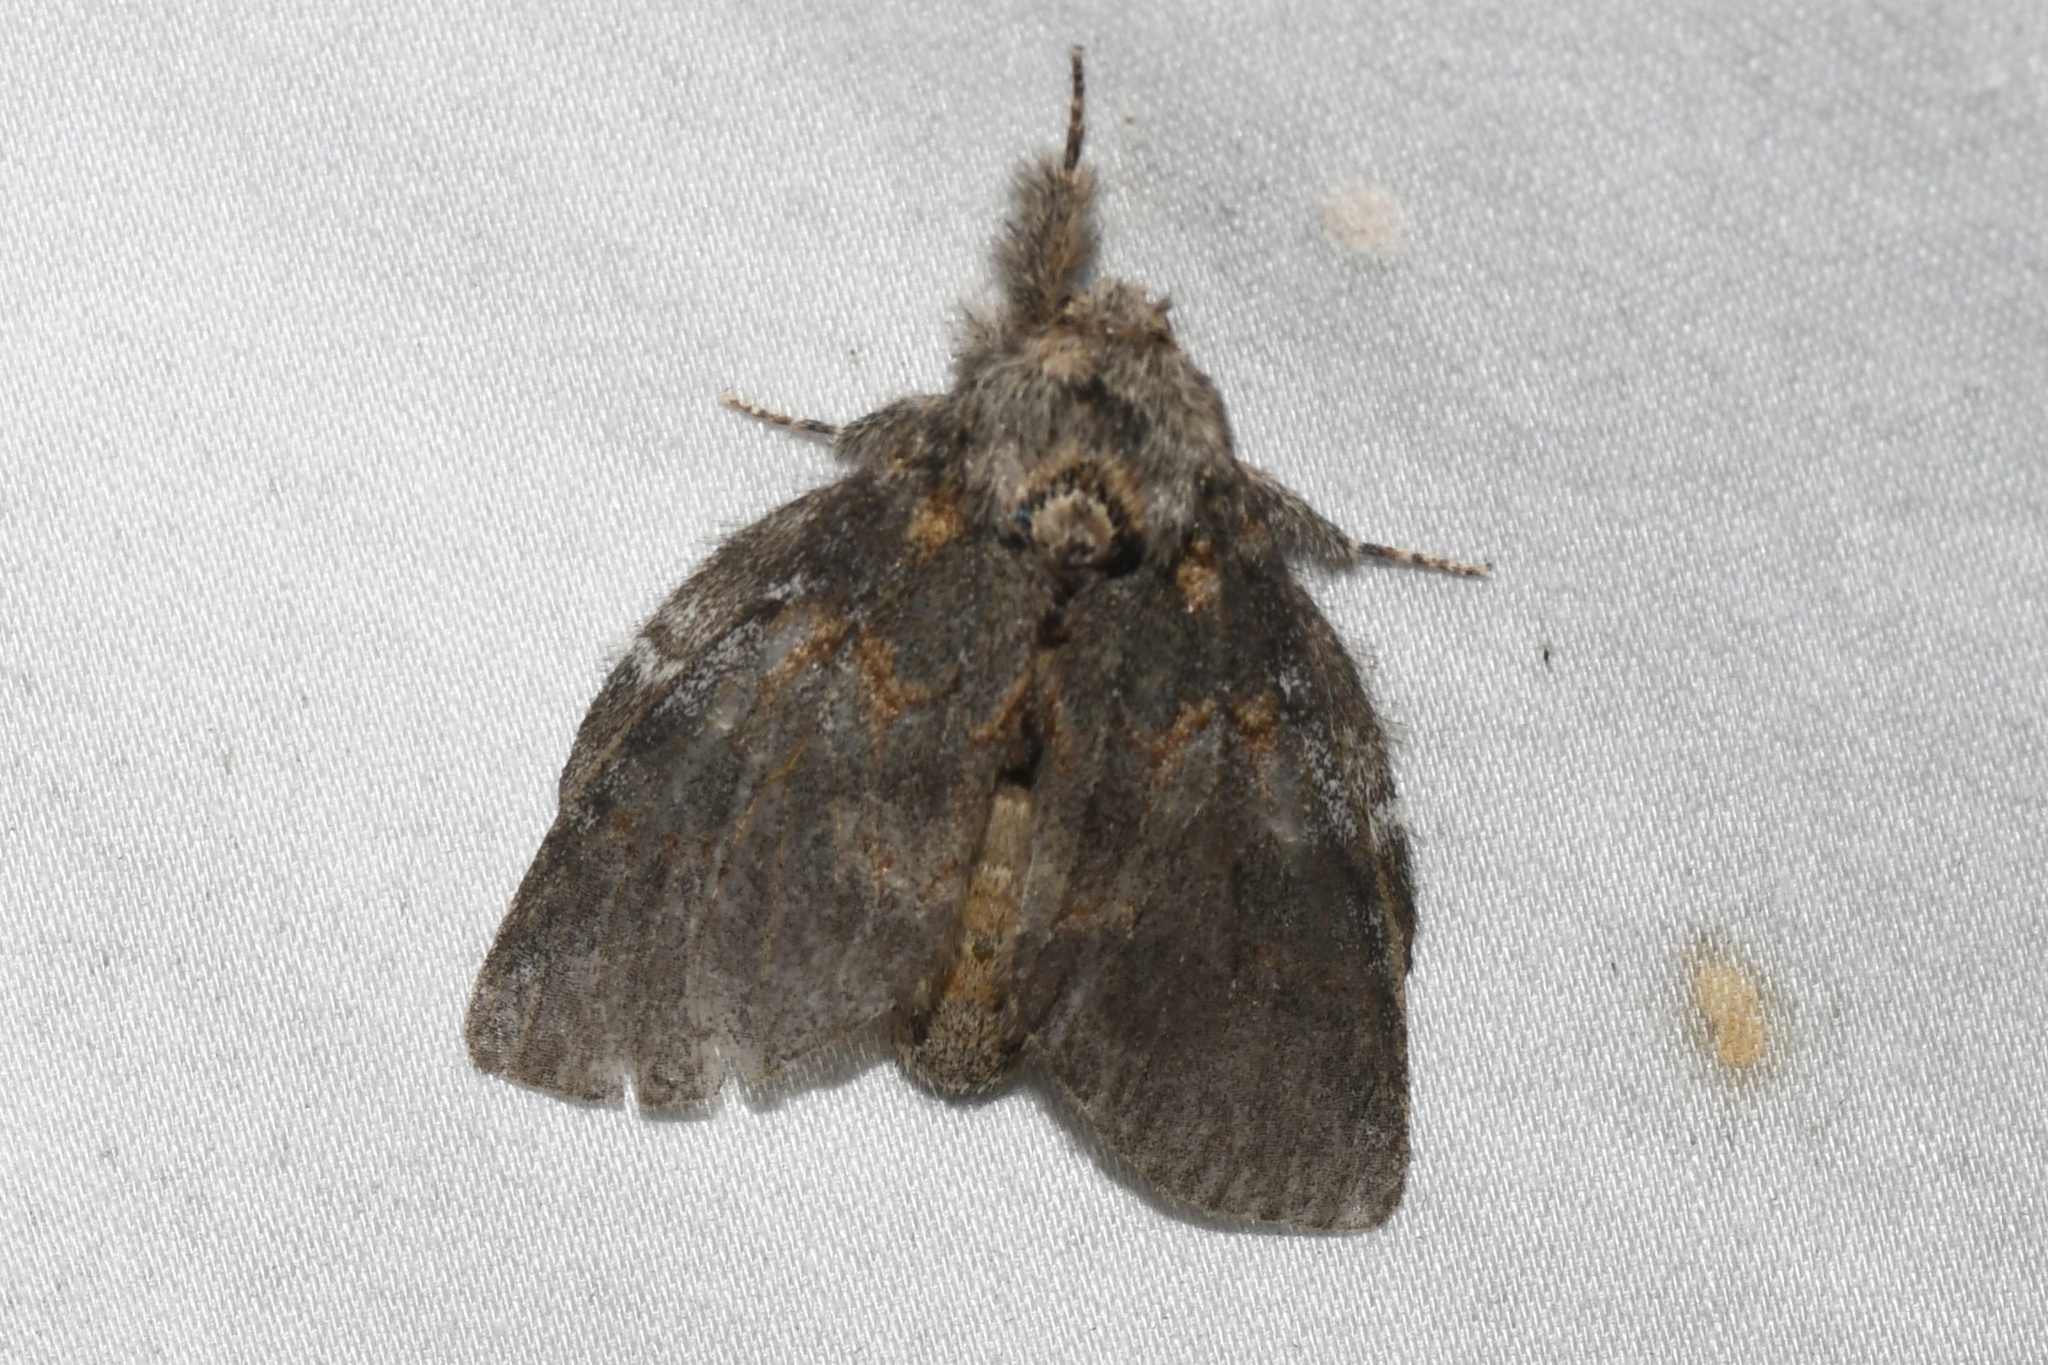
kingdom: Animalia
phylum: Arthropoda
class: Insecta
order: Lepidoptera
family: Notodontidae
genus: Peridea
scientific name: Peridea angulosa
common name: Angulose prominent
